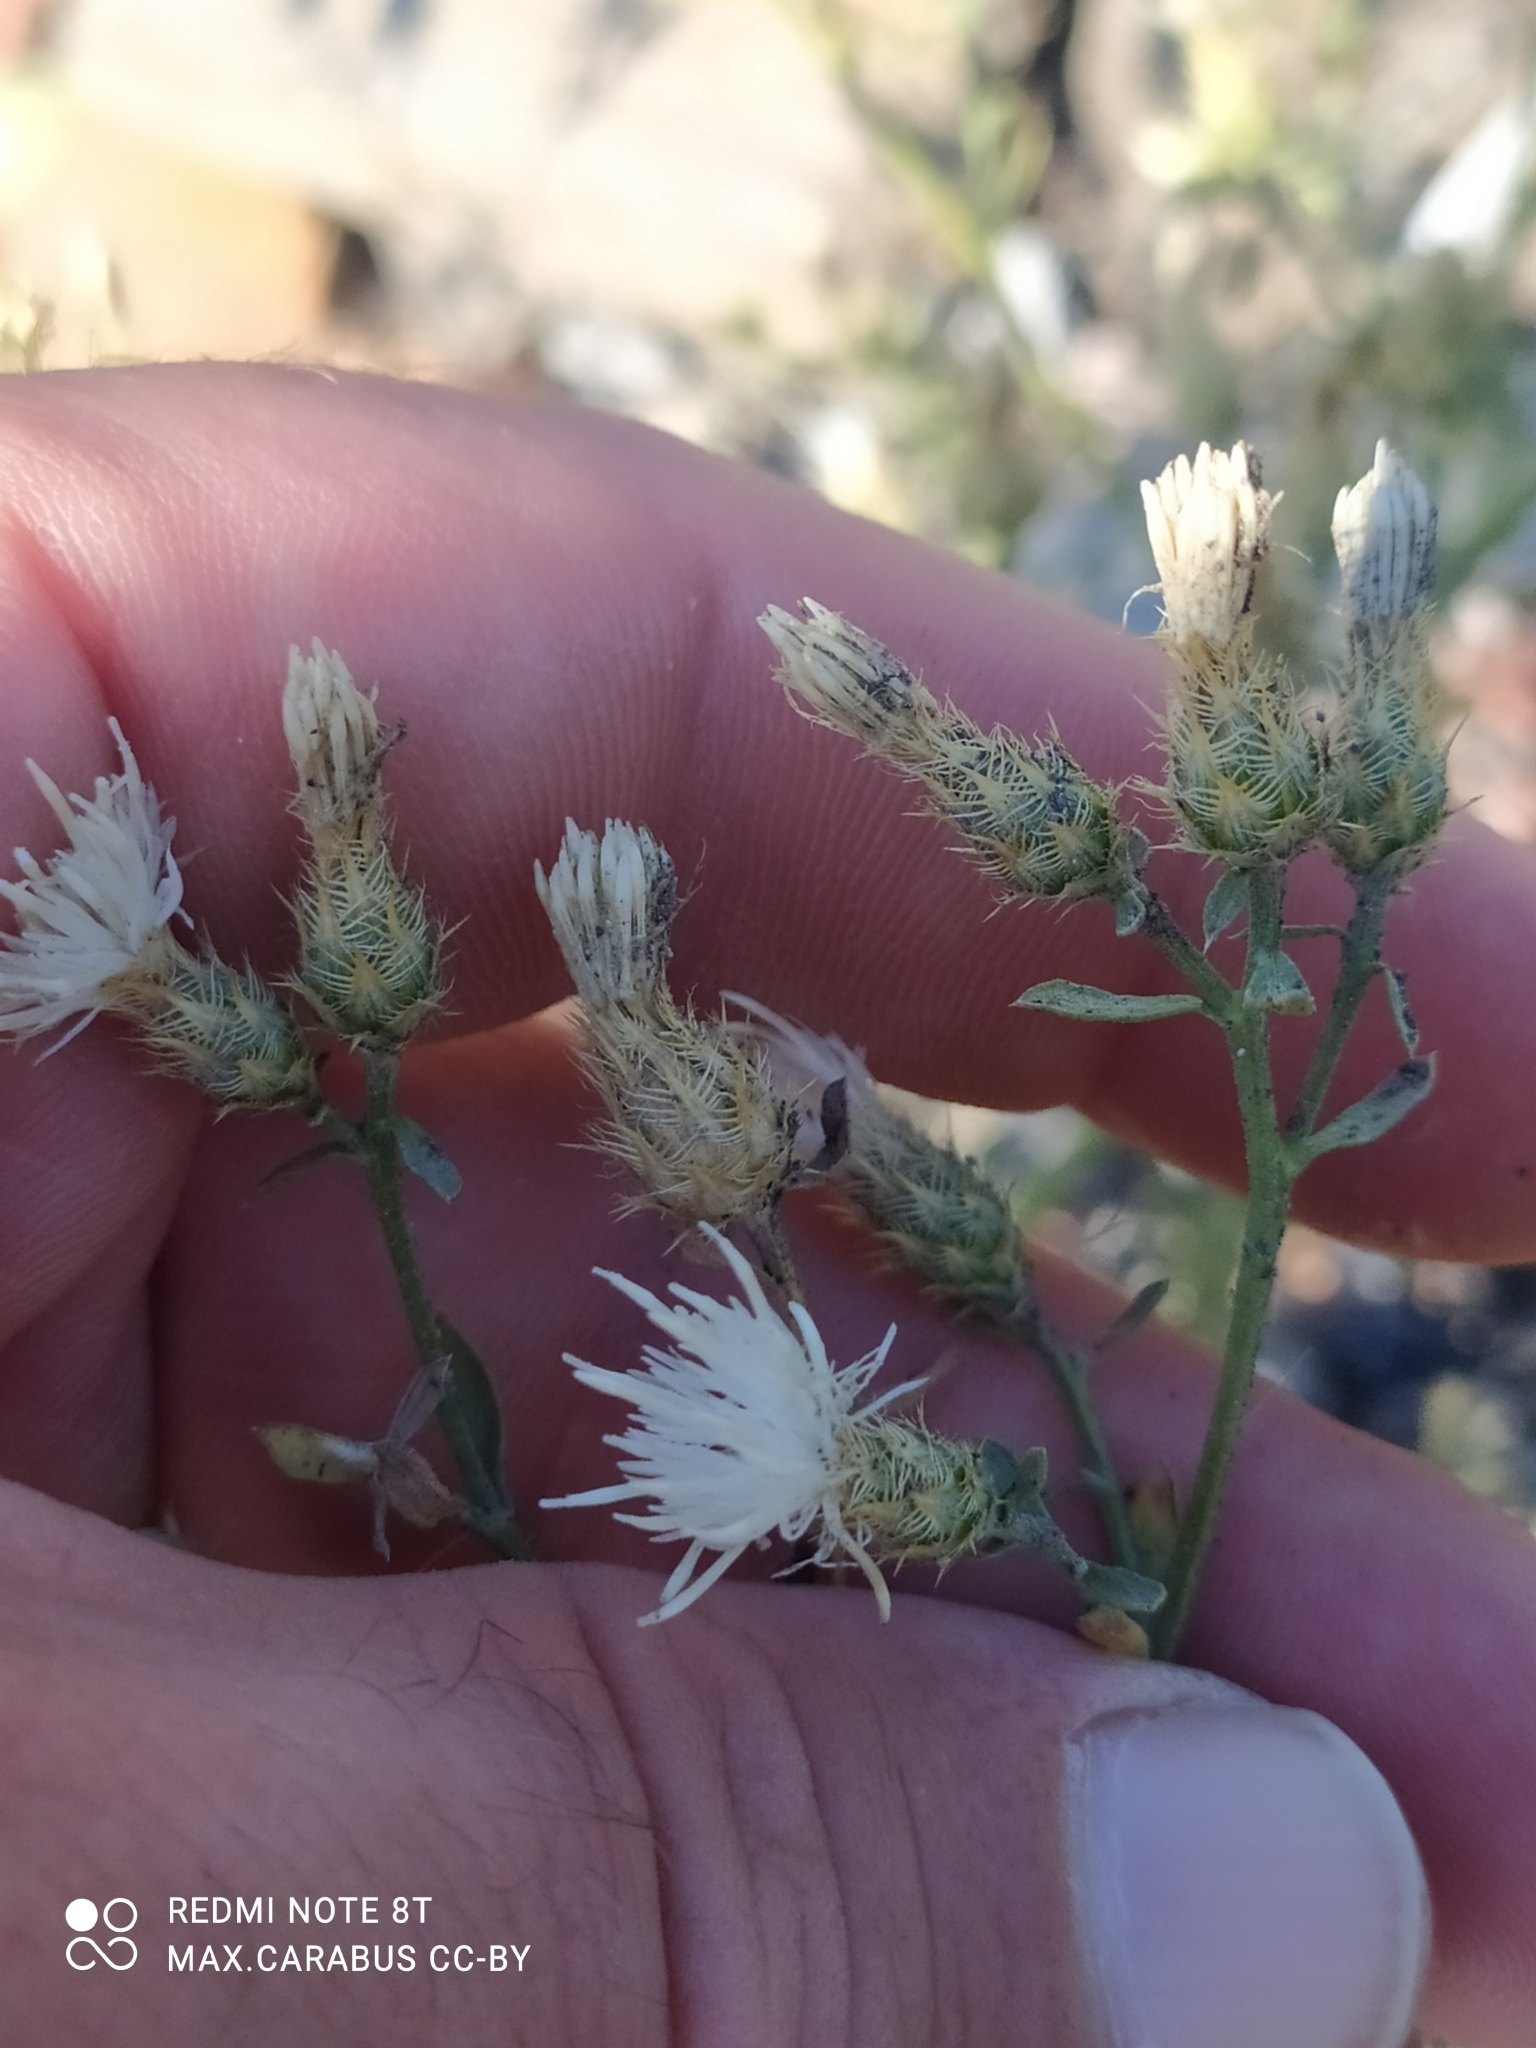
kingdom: Plantae
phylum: Tracheophyta
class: Magnoliopsida
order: Asterales
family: Asteraceae
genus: Centaurea
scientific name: Centaurea diffusa
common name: Diffuse knapweed
